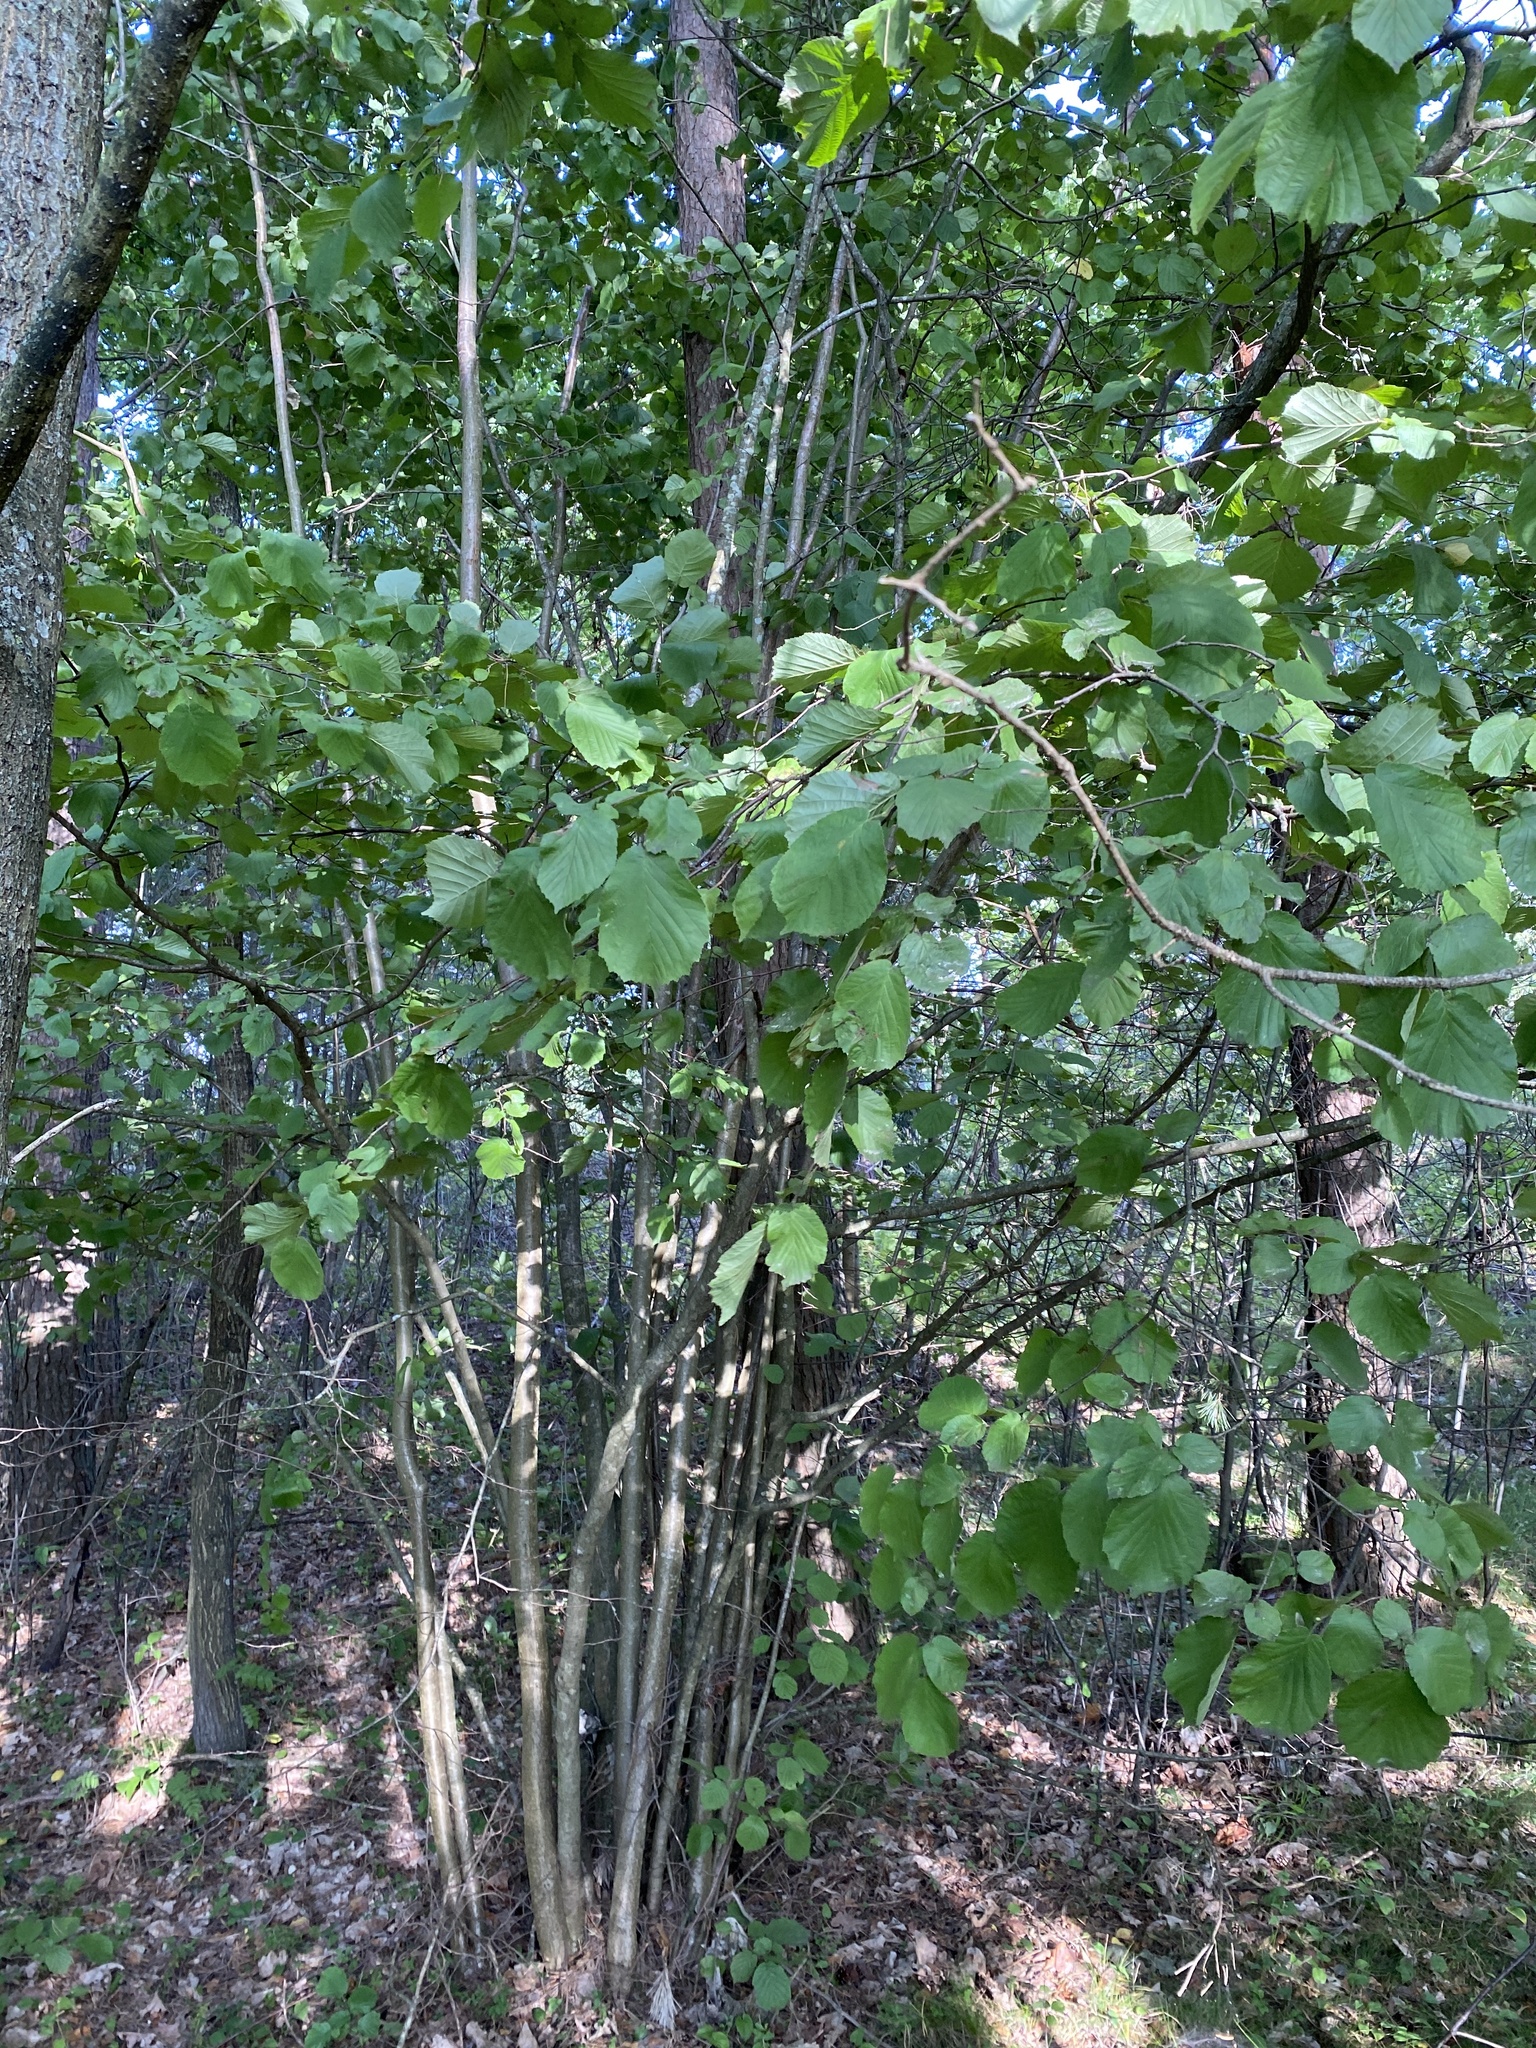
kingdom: Plantae
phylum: Tracheophyta
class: Magnoliopsida
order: Fagales
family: Betulaceae
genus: Corylus
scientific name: Corylus avellana
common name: European hazel
